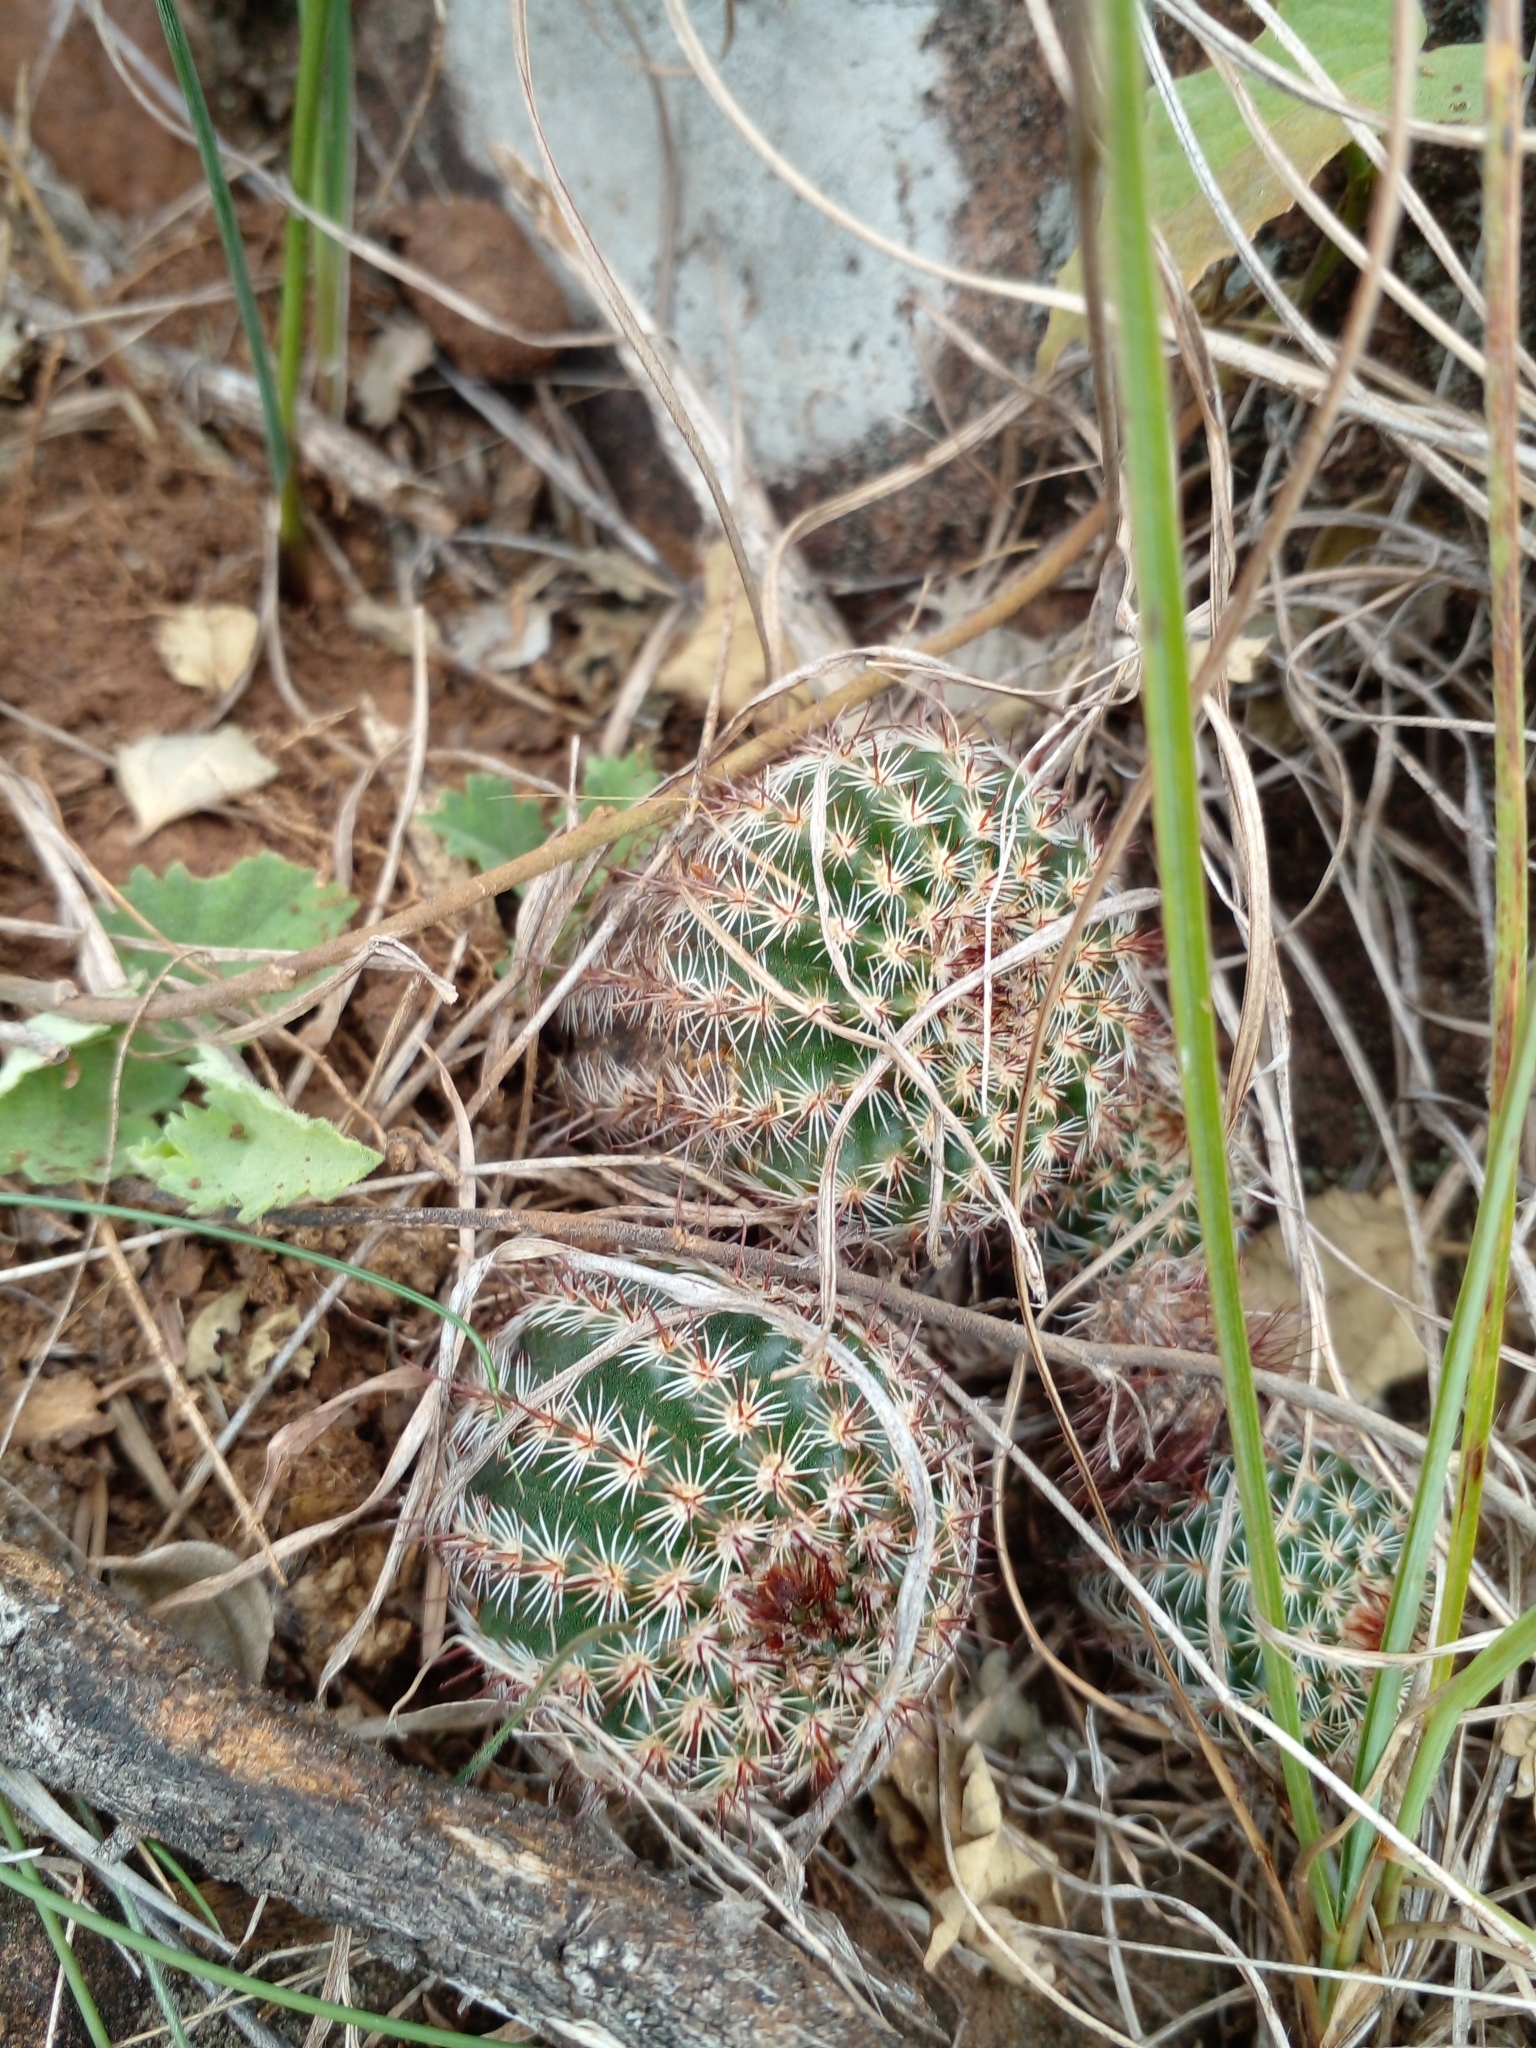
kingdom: Plantae
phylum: Tracheophyta
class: Magnoliopsida
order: Caryophyllales
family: Cactaceae
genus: Parodia
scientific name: Parodia tenuicylindrica
